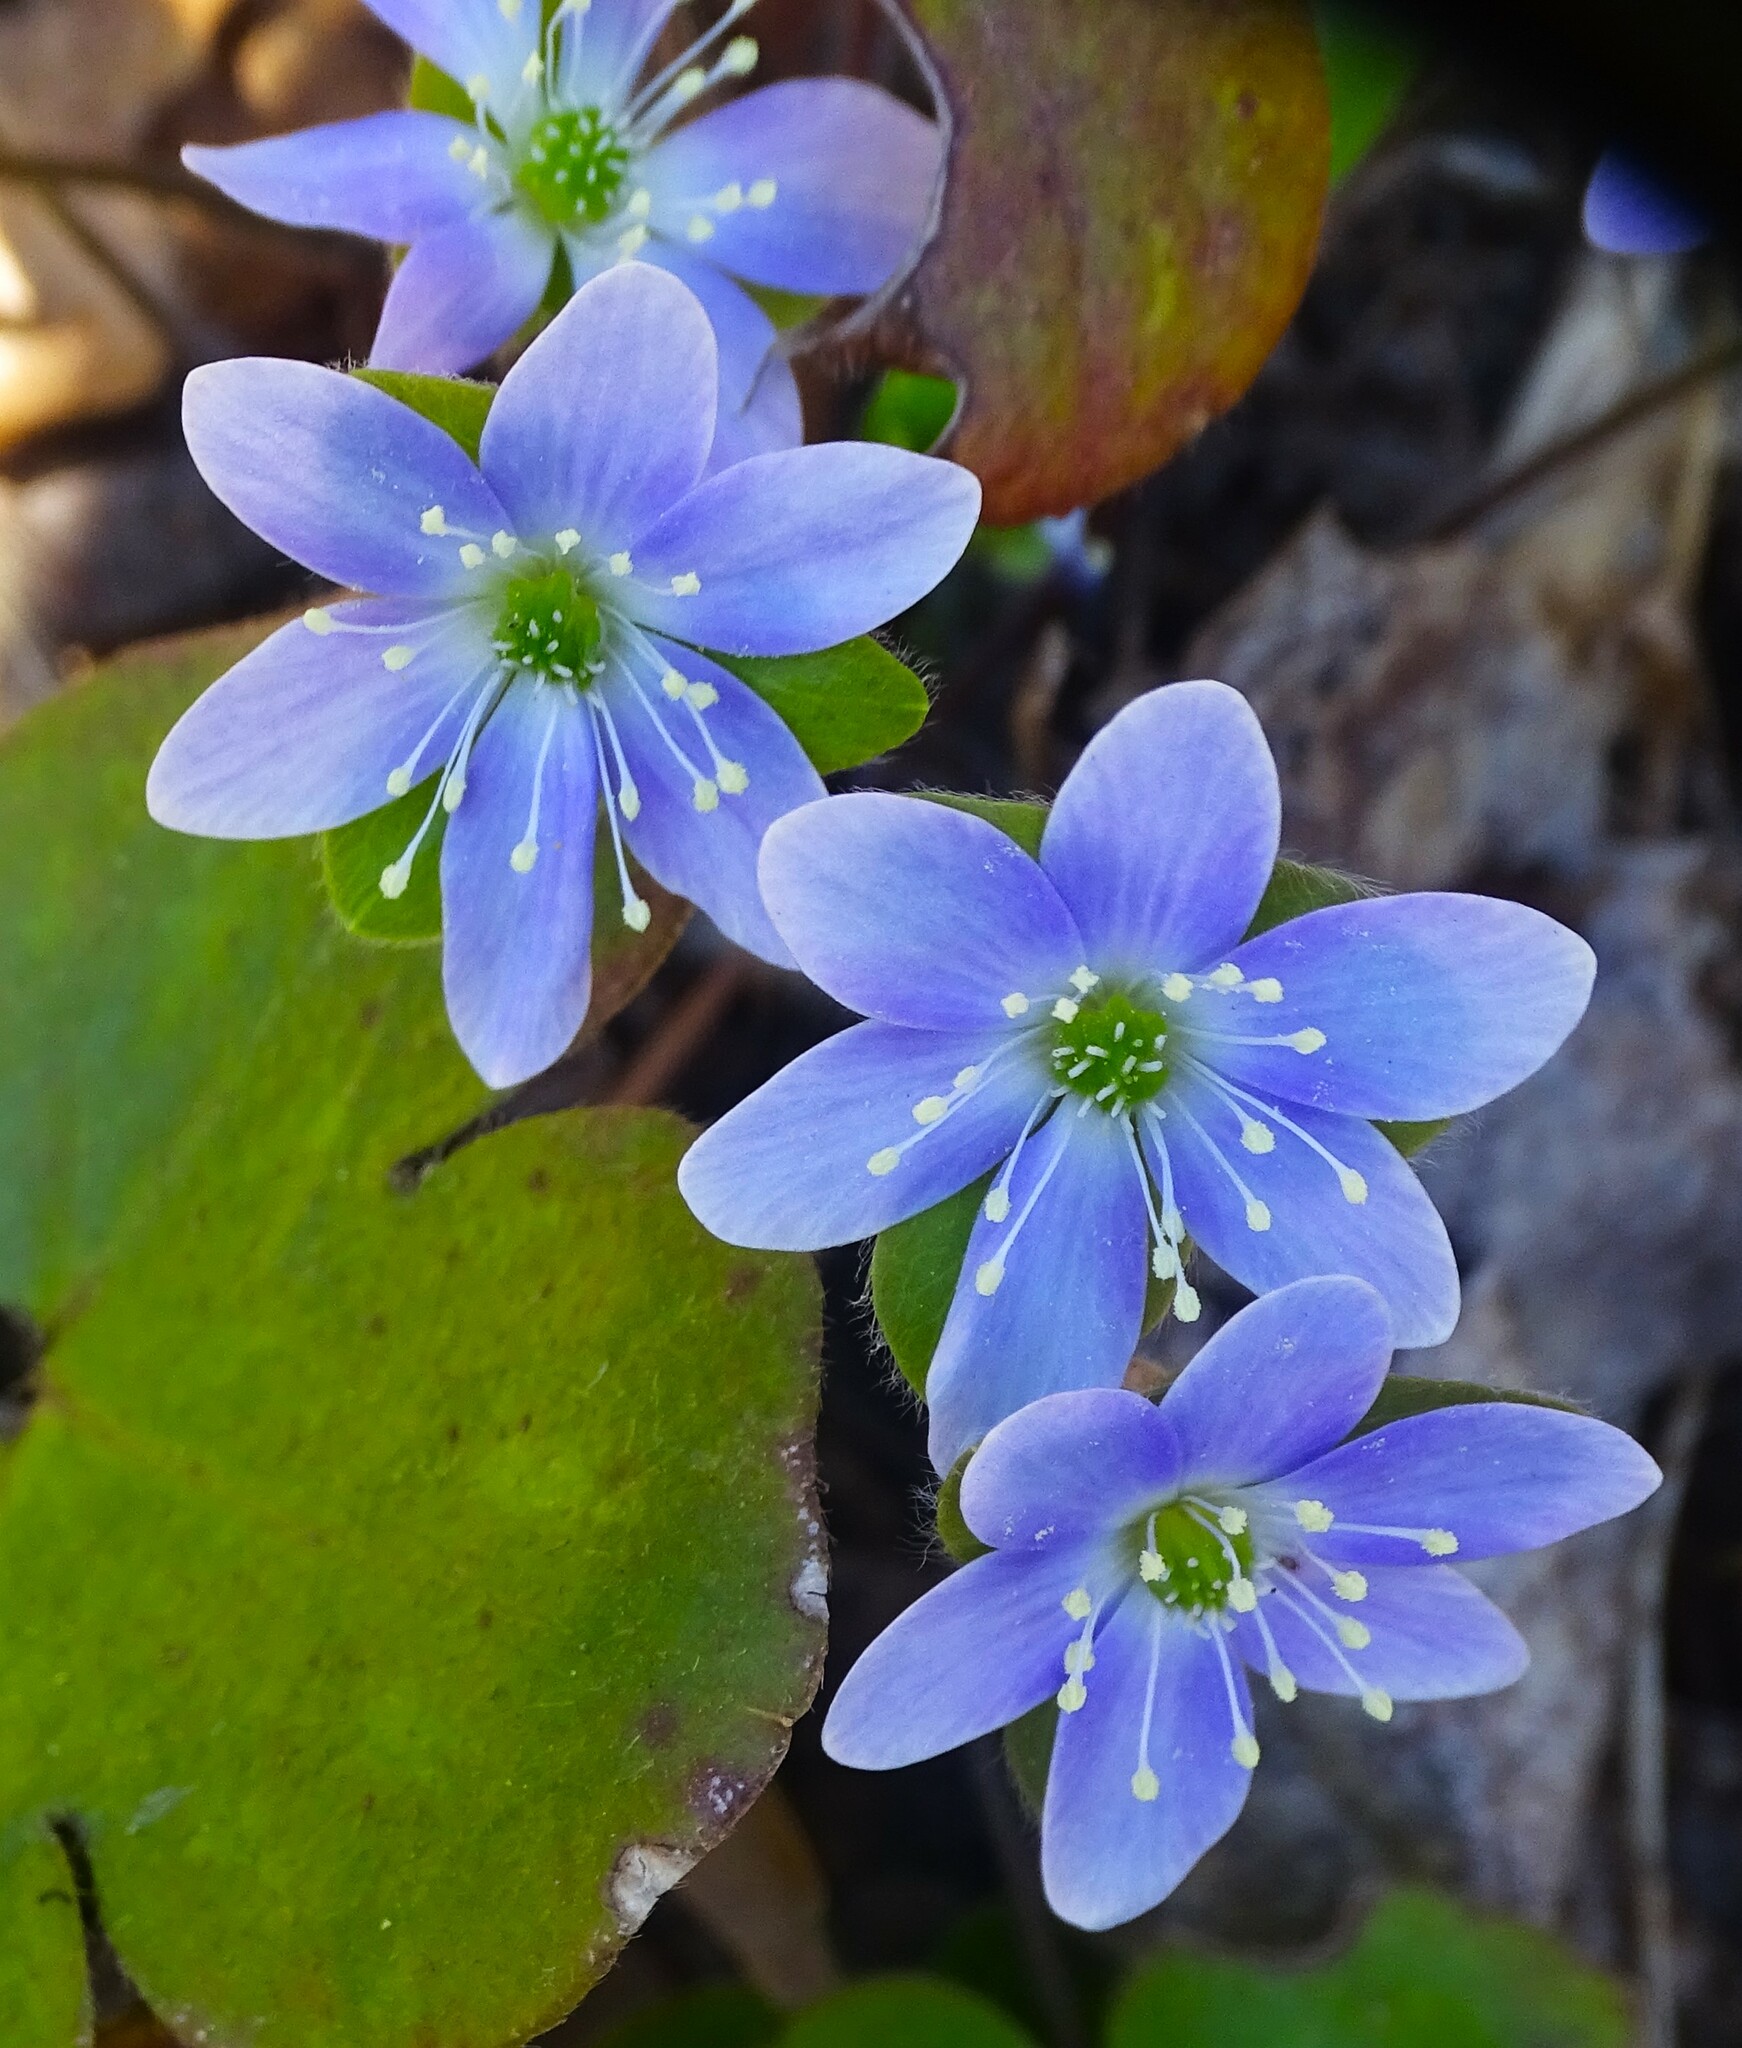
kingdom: Plantae
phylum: Tracheophyta
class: Magnoliopsida
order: Ranunculales
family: Ranunculaceae
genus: Hepatica
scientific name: Hepatica americana
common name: American hepatica
